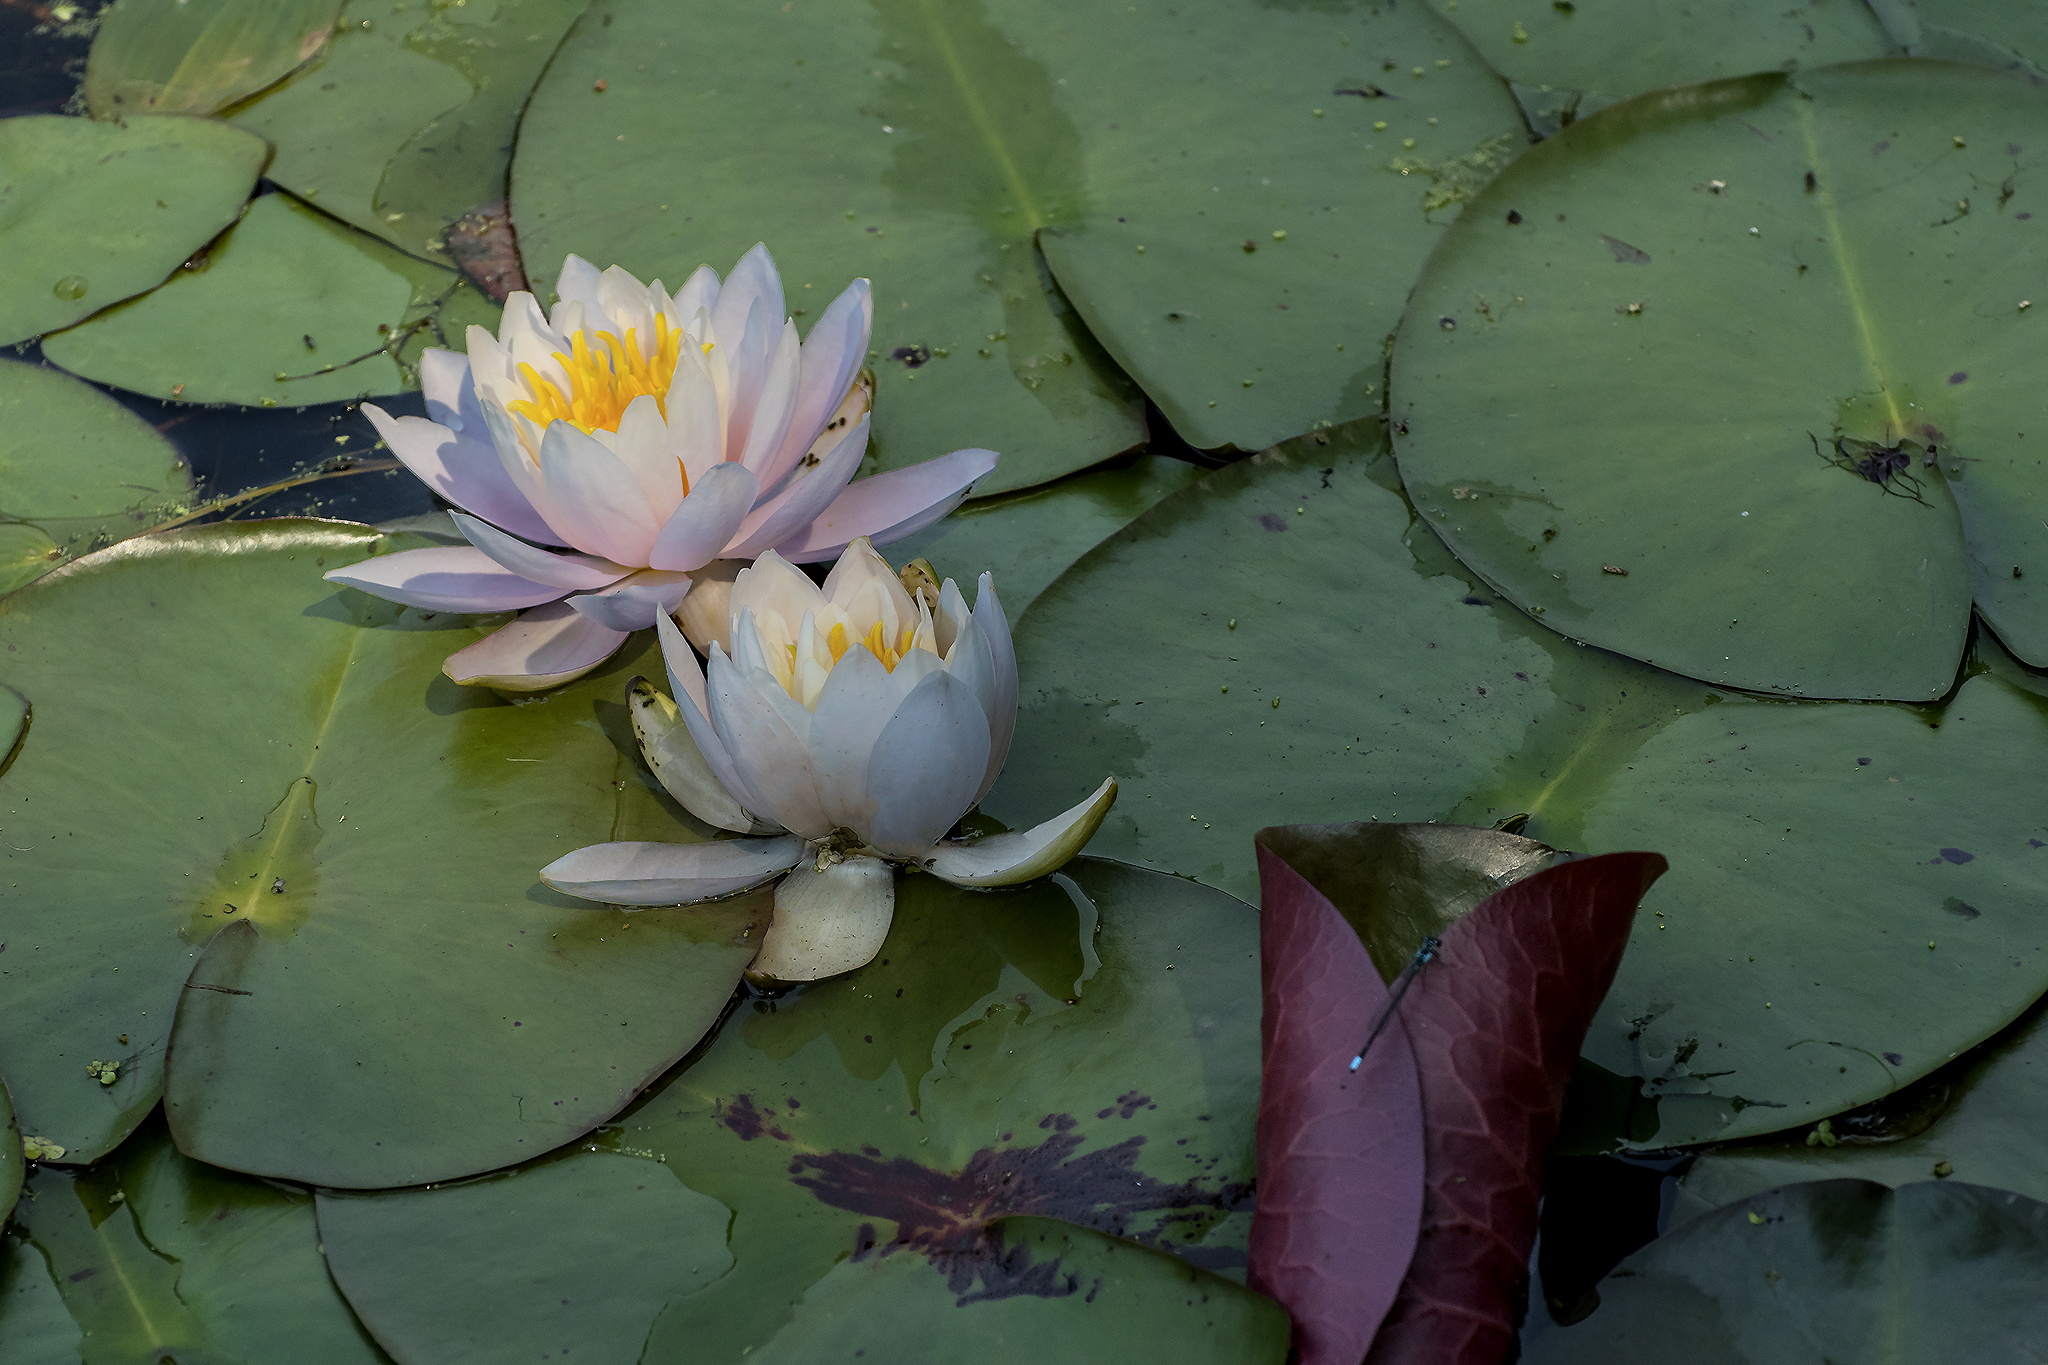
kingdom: Plantae
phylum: Tracheophyta
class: Magnoliopsida
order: Nymphaeales
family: Nymphaeaceae
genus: Nymphaea
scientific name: Nymphaea odorata
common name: Fragrant water-lily
